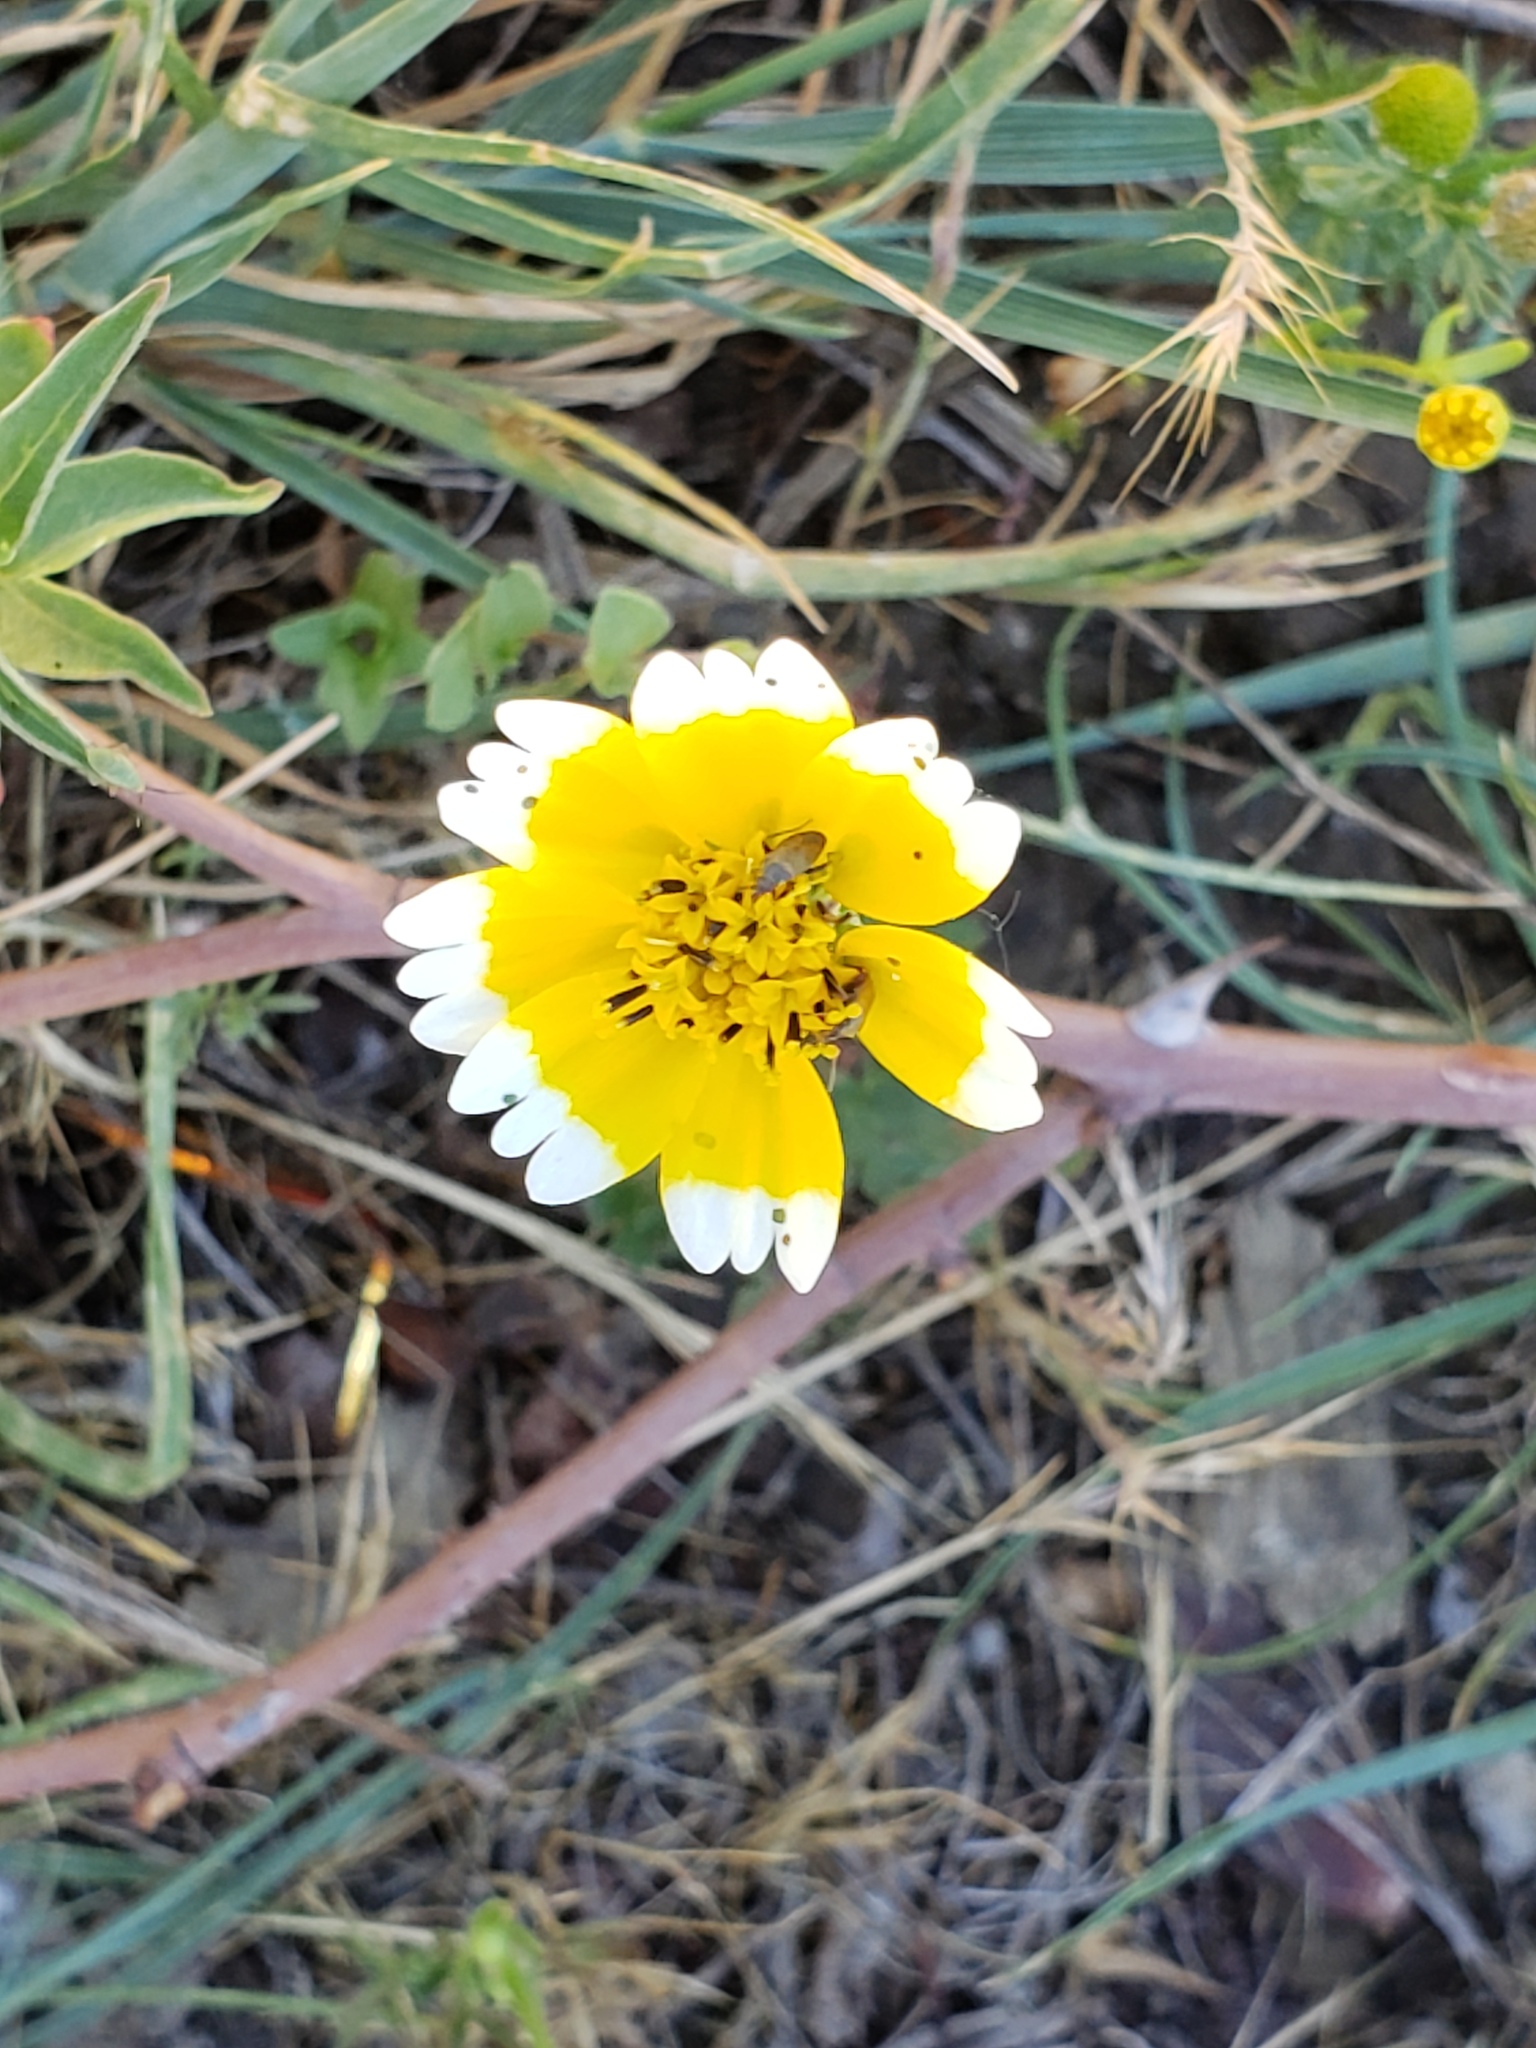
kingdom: Plantae
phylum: Tracheophyta
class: Magnoliopsida
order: Asterales
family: Asteraceae
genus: Layia
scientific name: Layia platyglossa
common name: Tidy-tips
